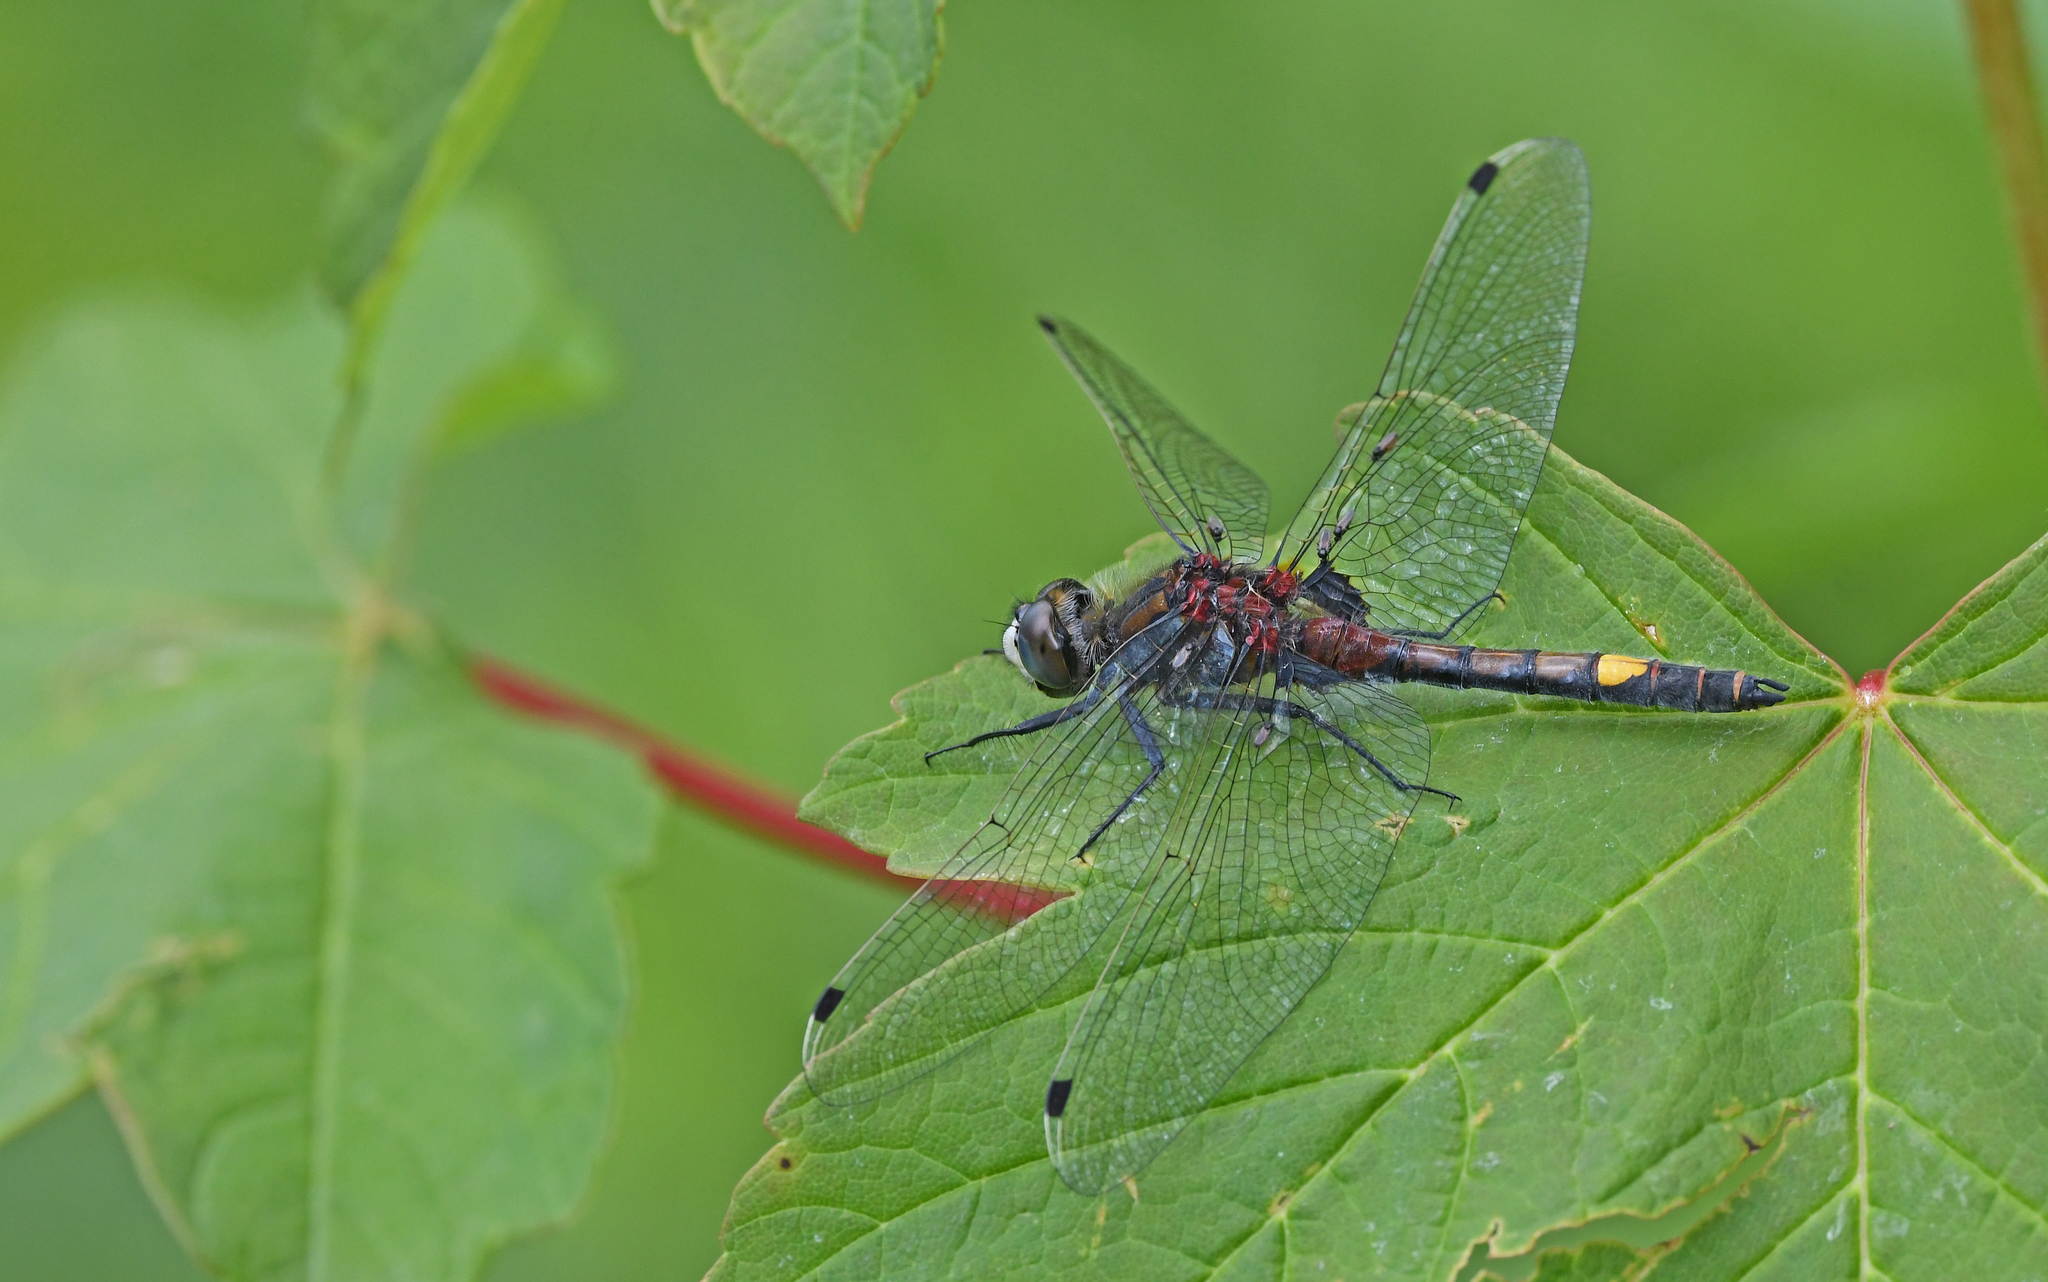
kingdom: Animalia
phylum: Arthropoda
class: Insecta
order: Odonata
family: Libellulidae
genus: Leucorrhinia
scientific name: Leucorrhinia pectoralis
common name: Yellow-spotted whiteface
